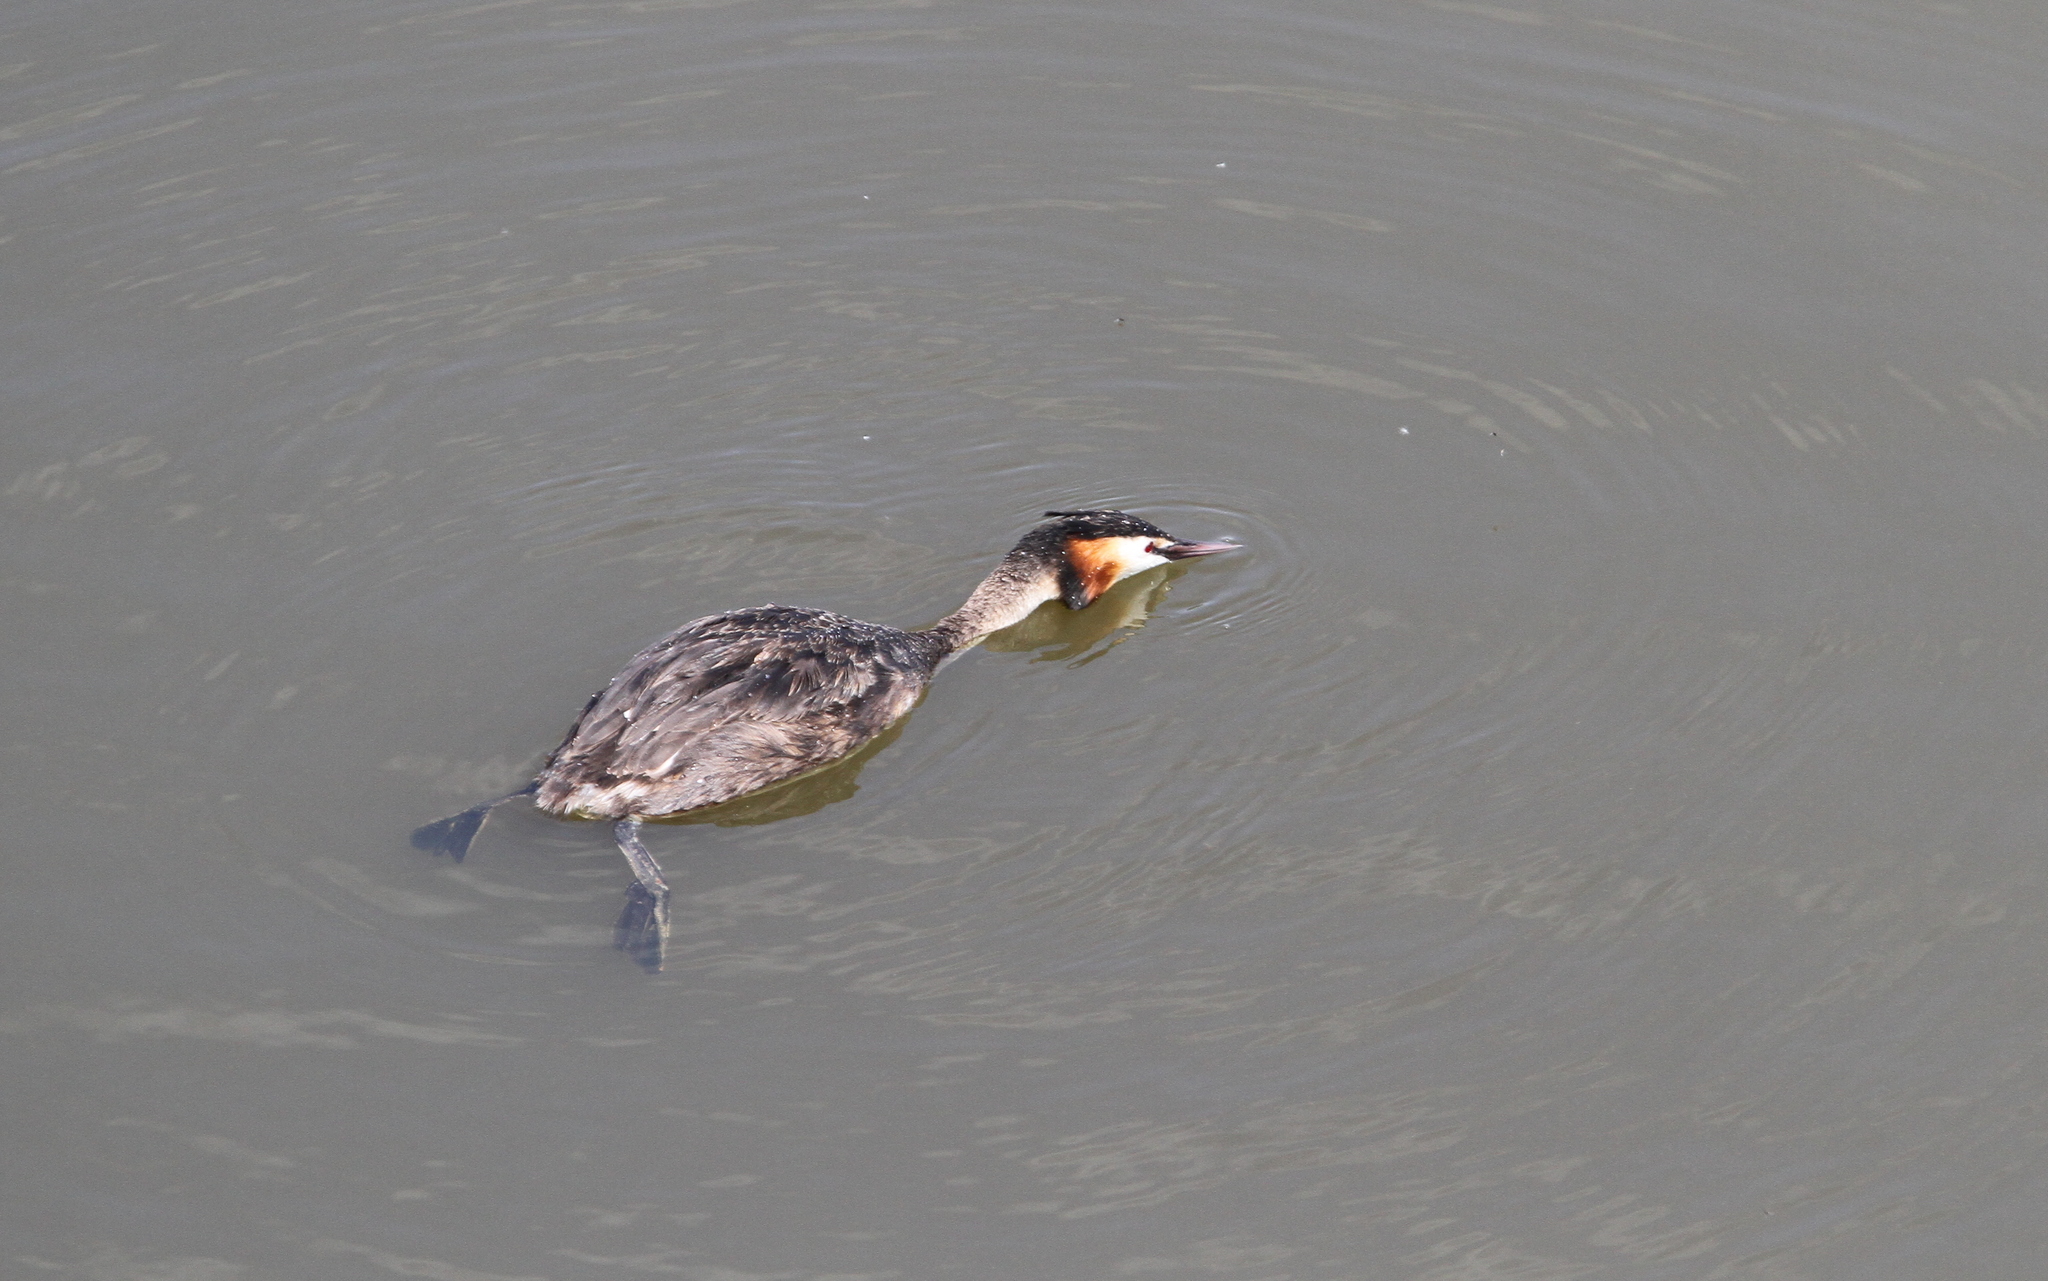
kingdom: Animalia
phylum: Chordata
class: Aves
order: Podicipediformes
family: Podicipedidae
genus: Podiceps
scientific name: Podiceps cristatus
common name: Great crested grebe
